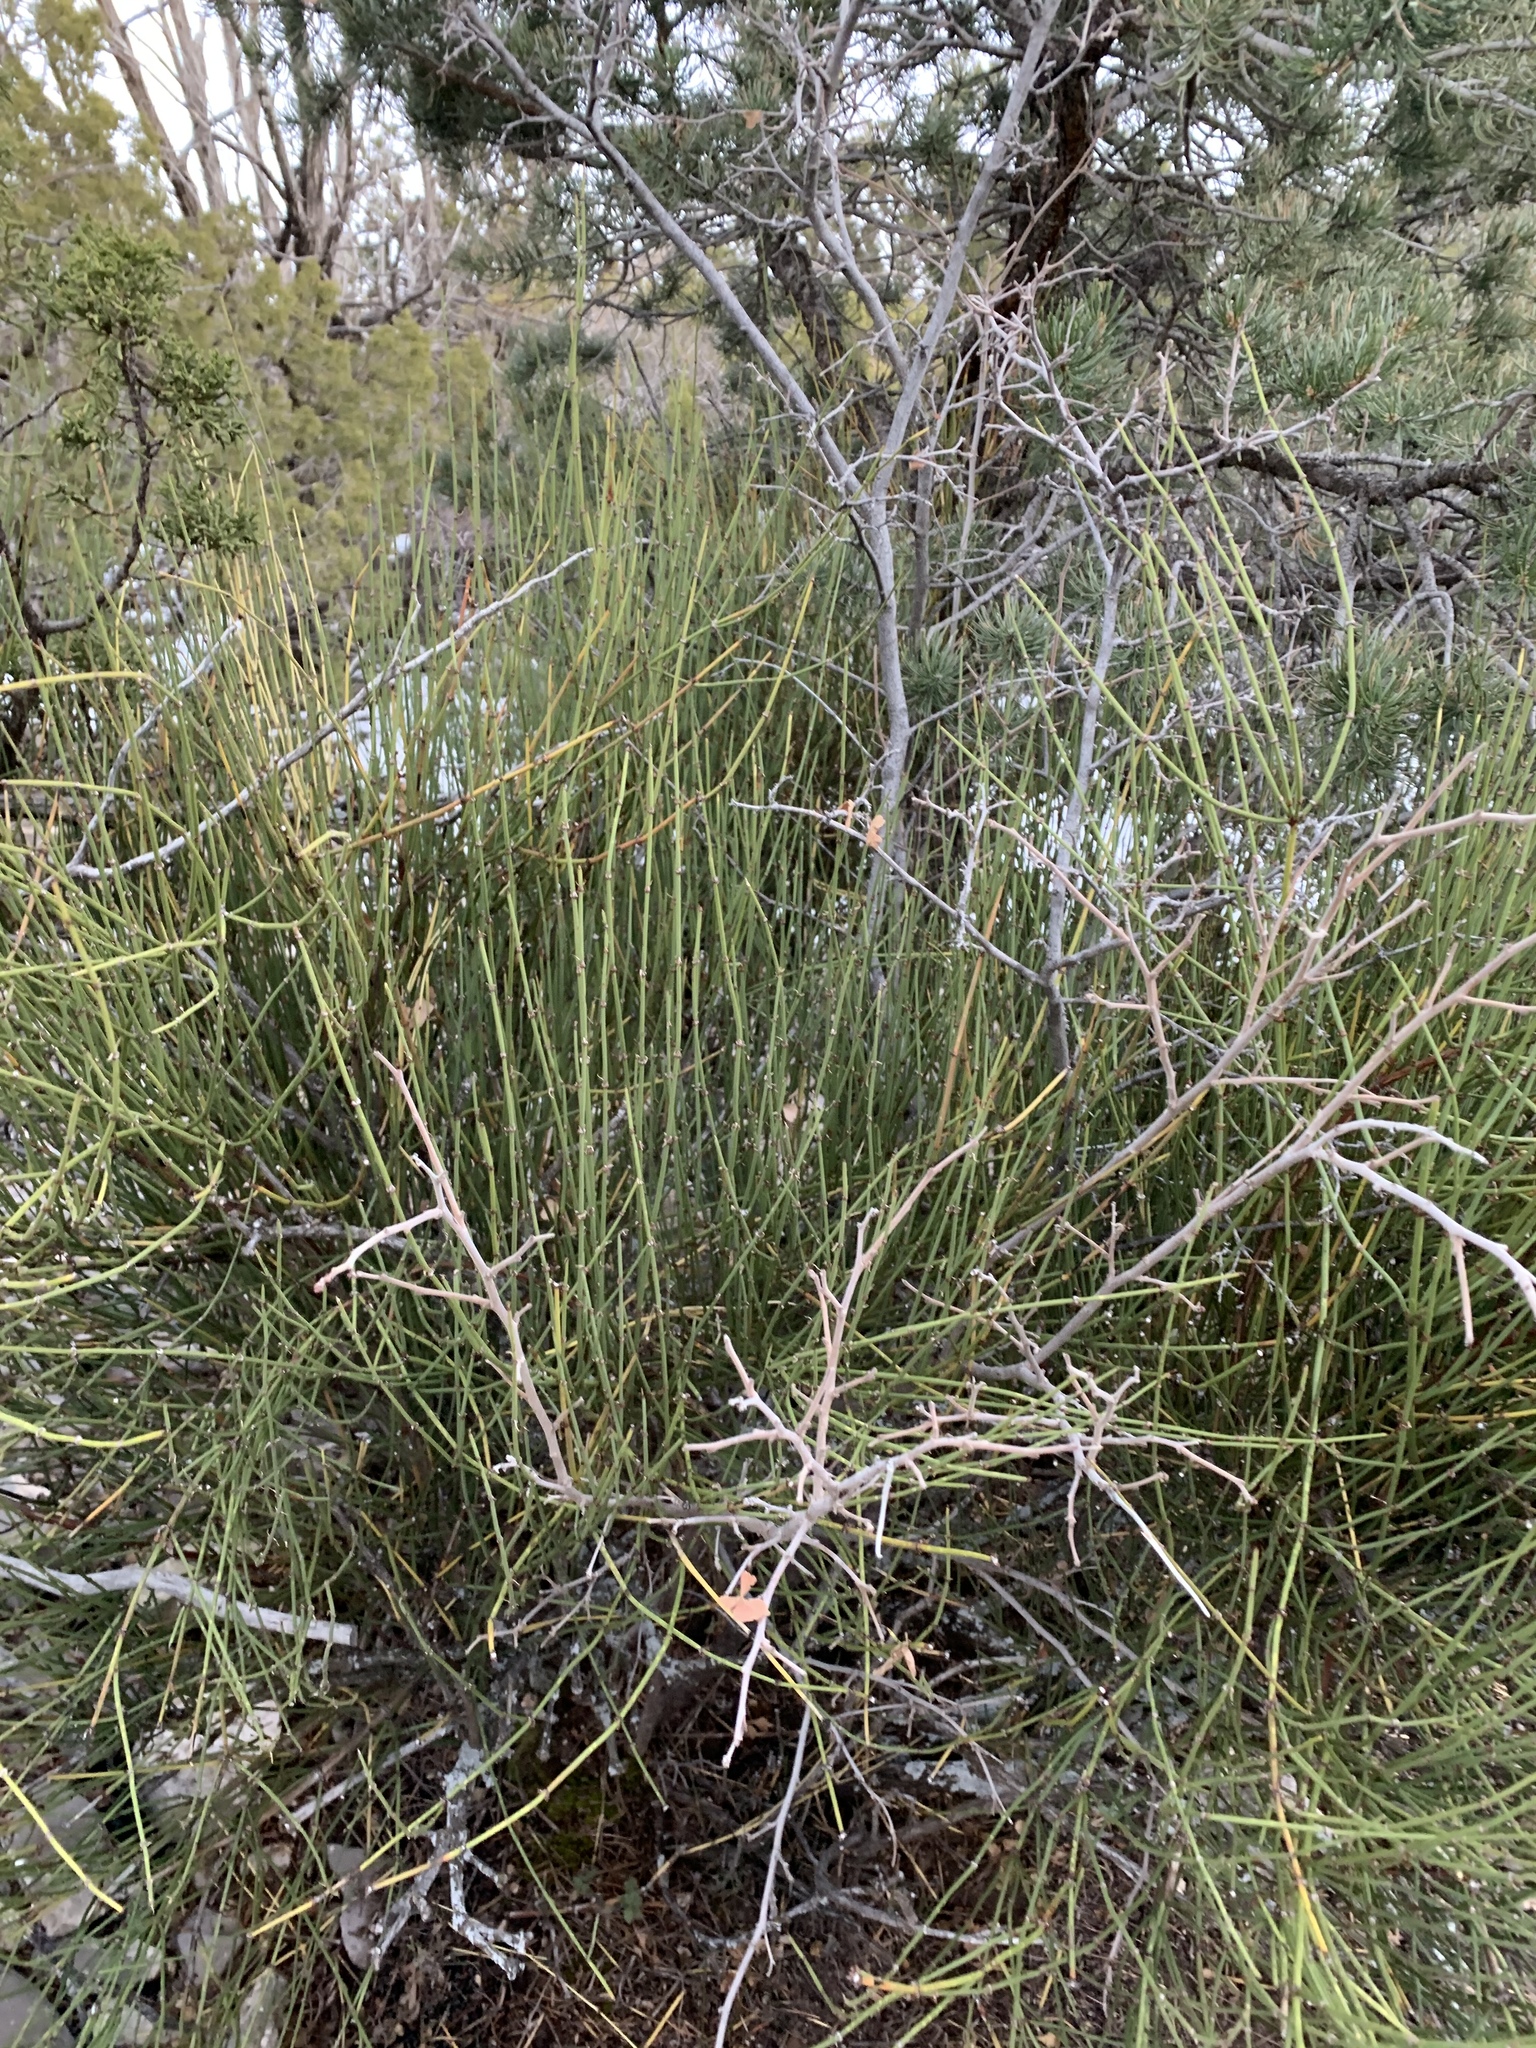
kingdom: Plantae
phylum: Tracheophyta
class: Gnetopsida
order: Ephedrales
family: Ephedraceae
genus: Ephedra
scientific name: Ephedra viridis
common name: Green ephedra
